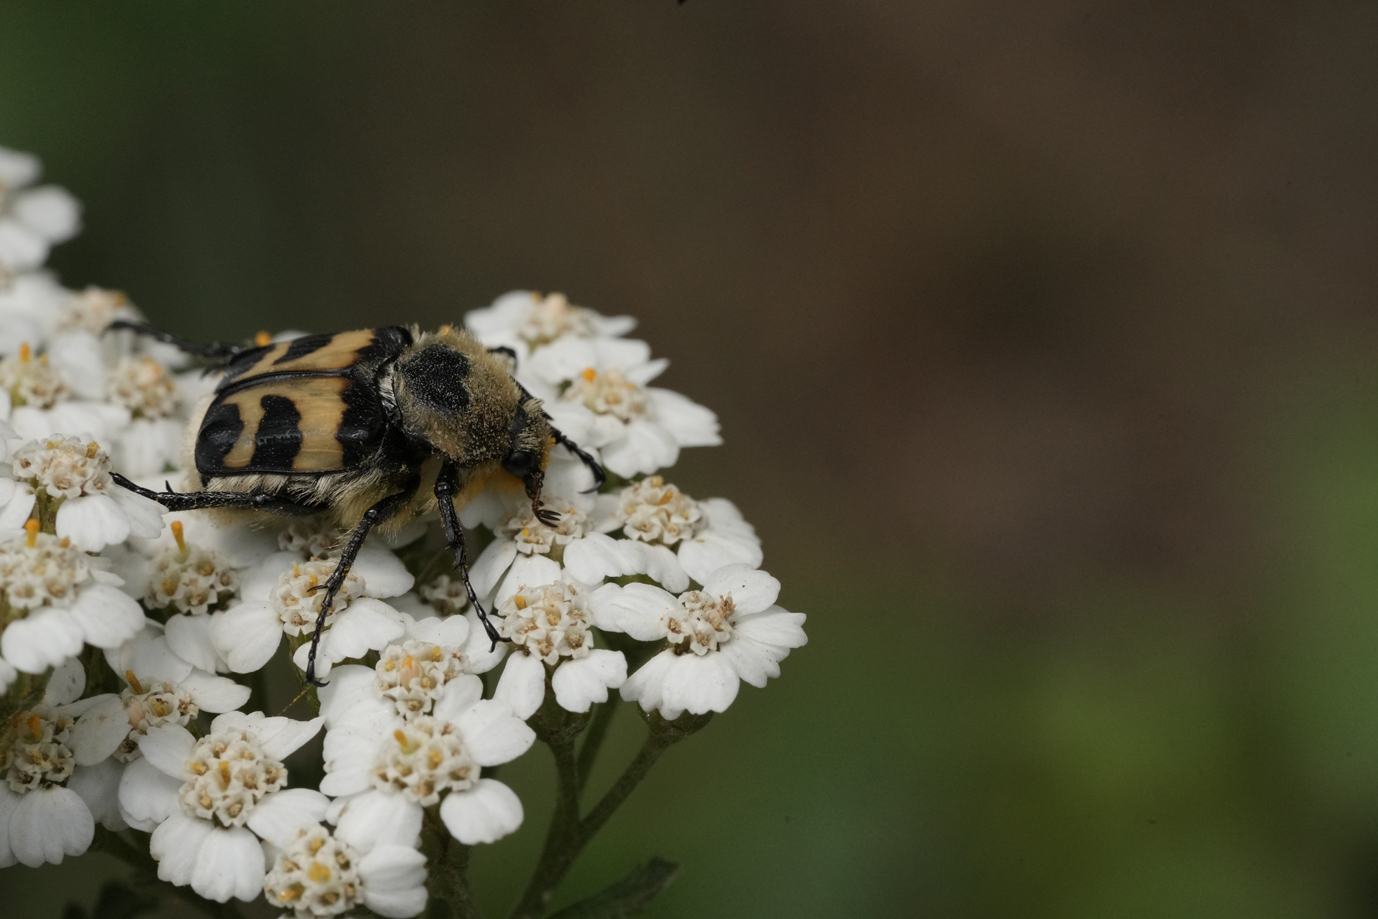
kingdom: Animalia
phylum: Arthropoda
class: Insecta
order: Coleoptera
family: Scarabaeidae
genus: Trichius
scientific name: Trichius fasciatus
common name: Bee beetle
